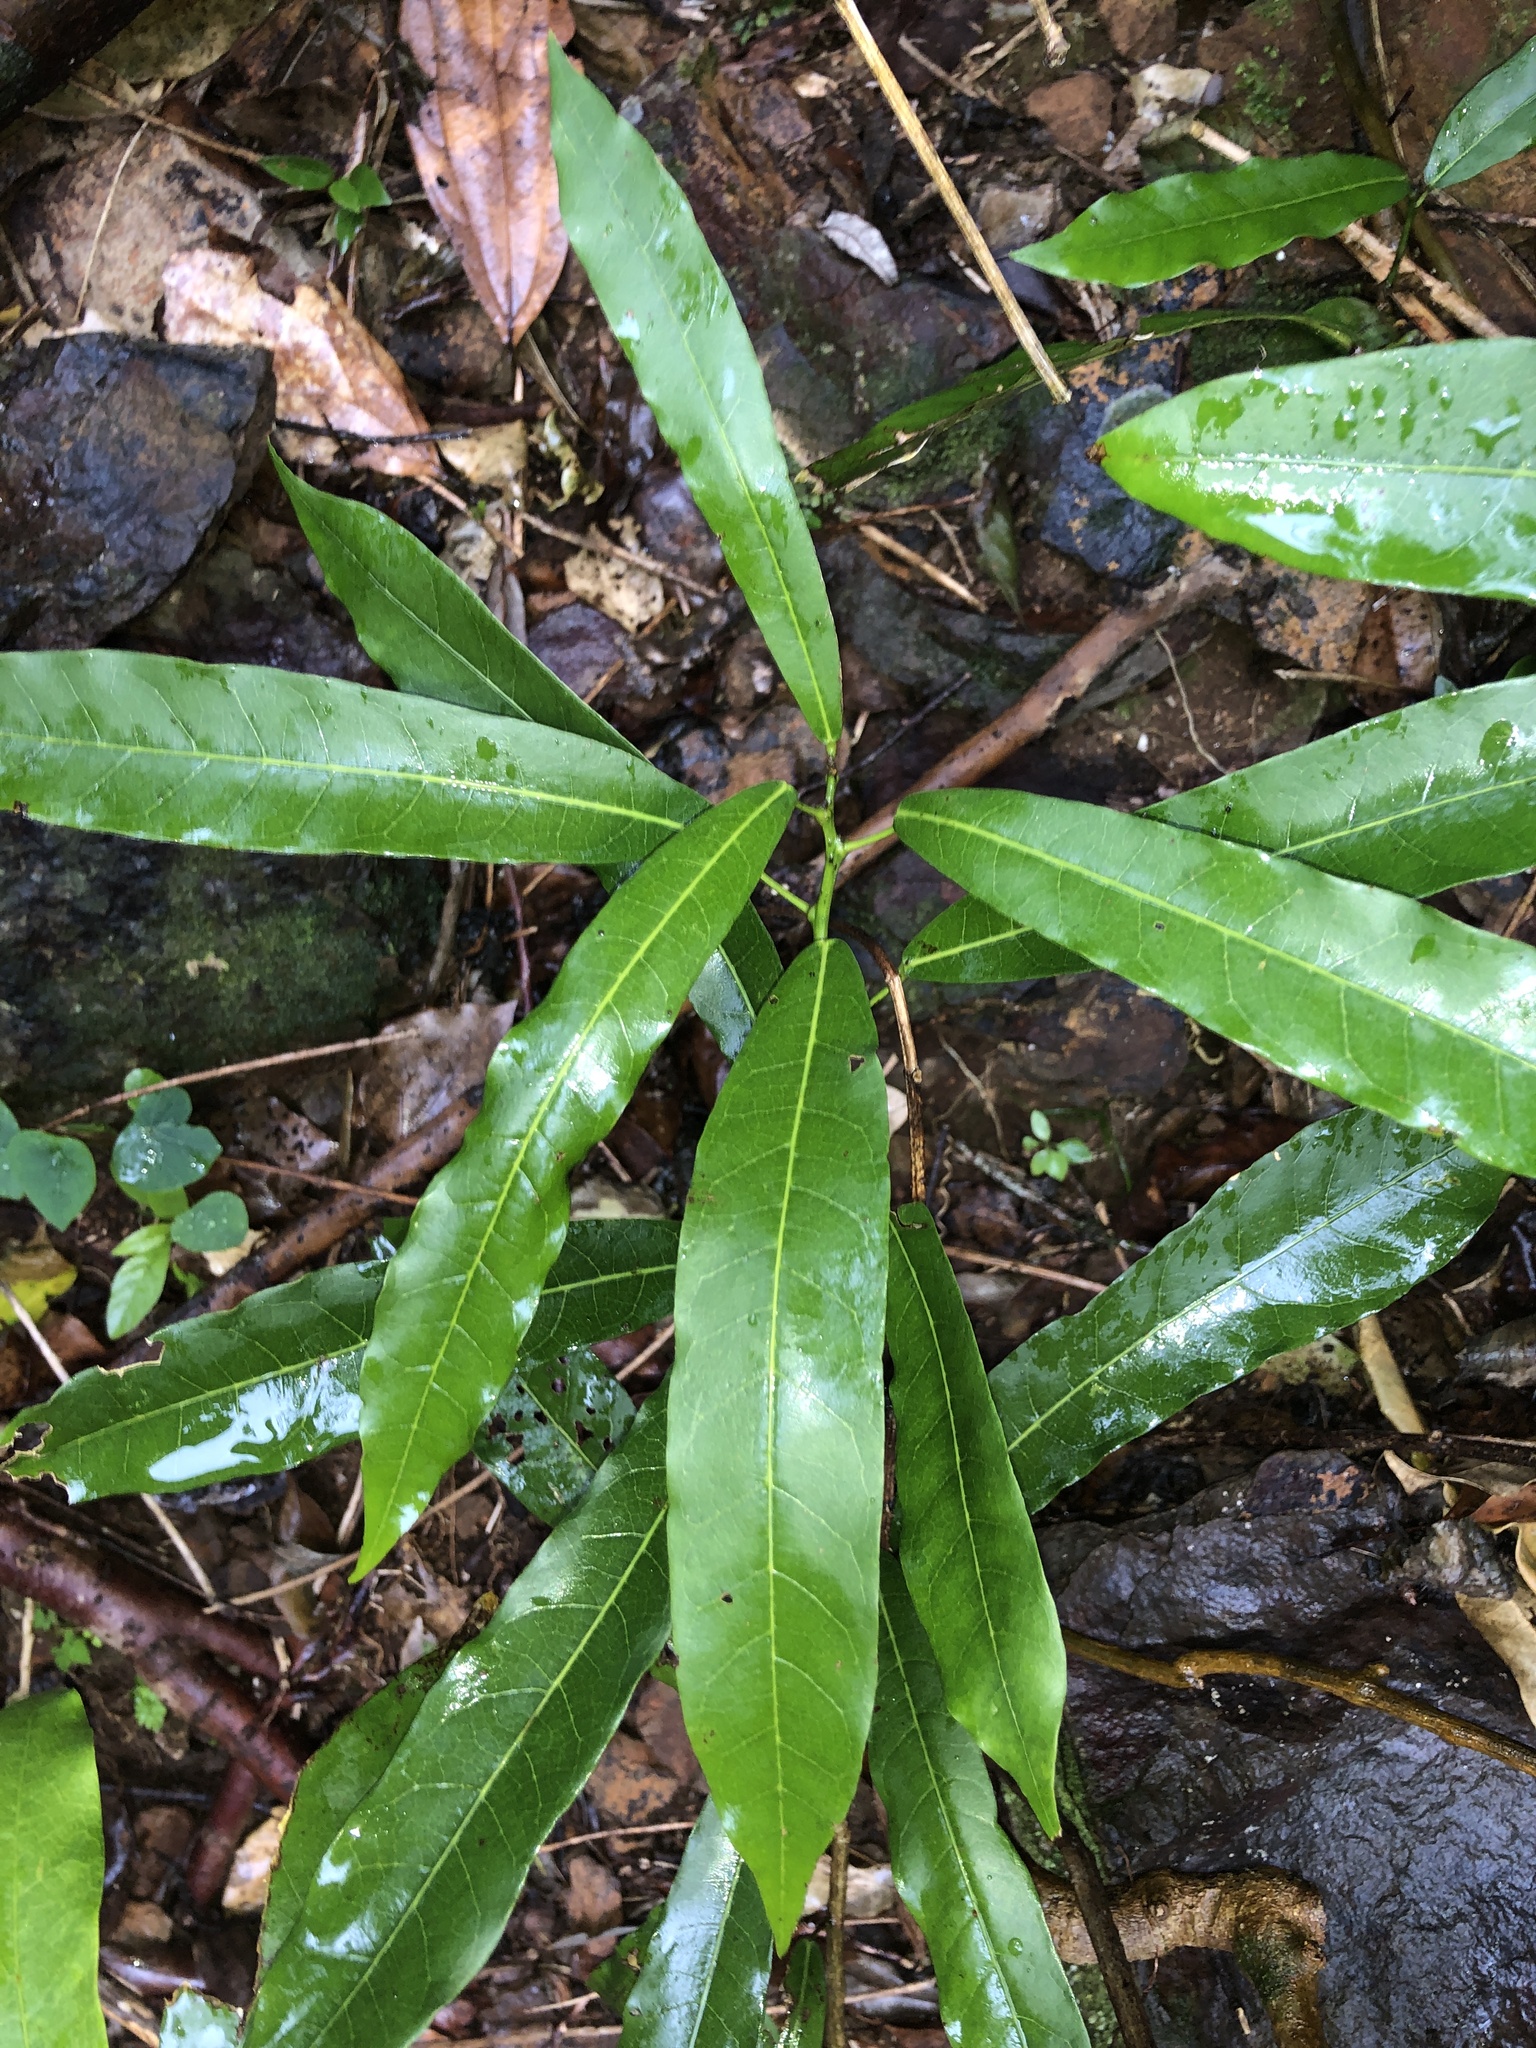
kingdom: Plantae
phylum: Tracheophyta
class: Magnoliopsida
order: Ranunculales
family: Menispermaceae
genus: Carronia
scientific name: Carronia multisepalea
